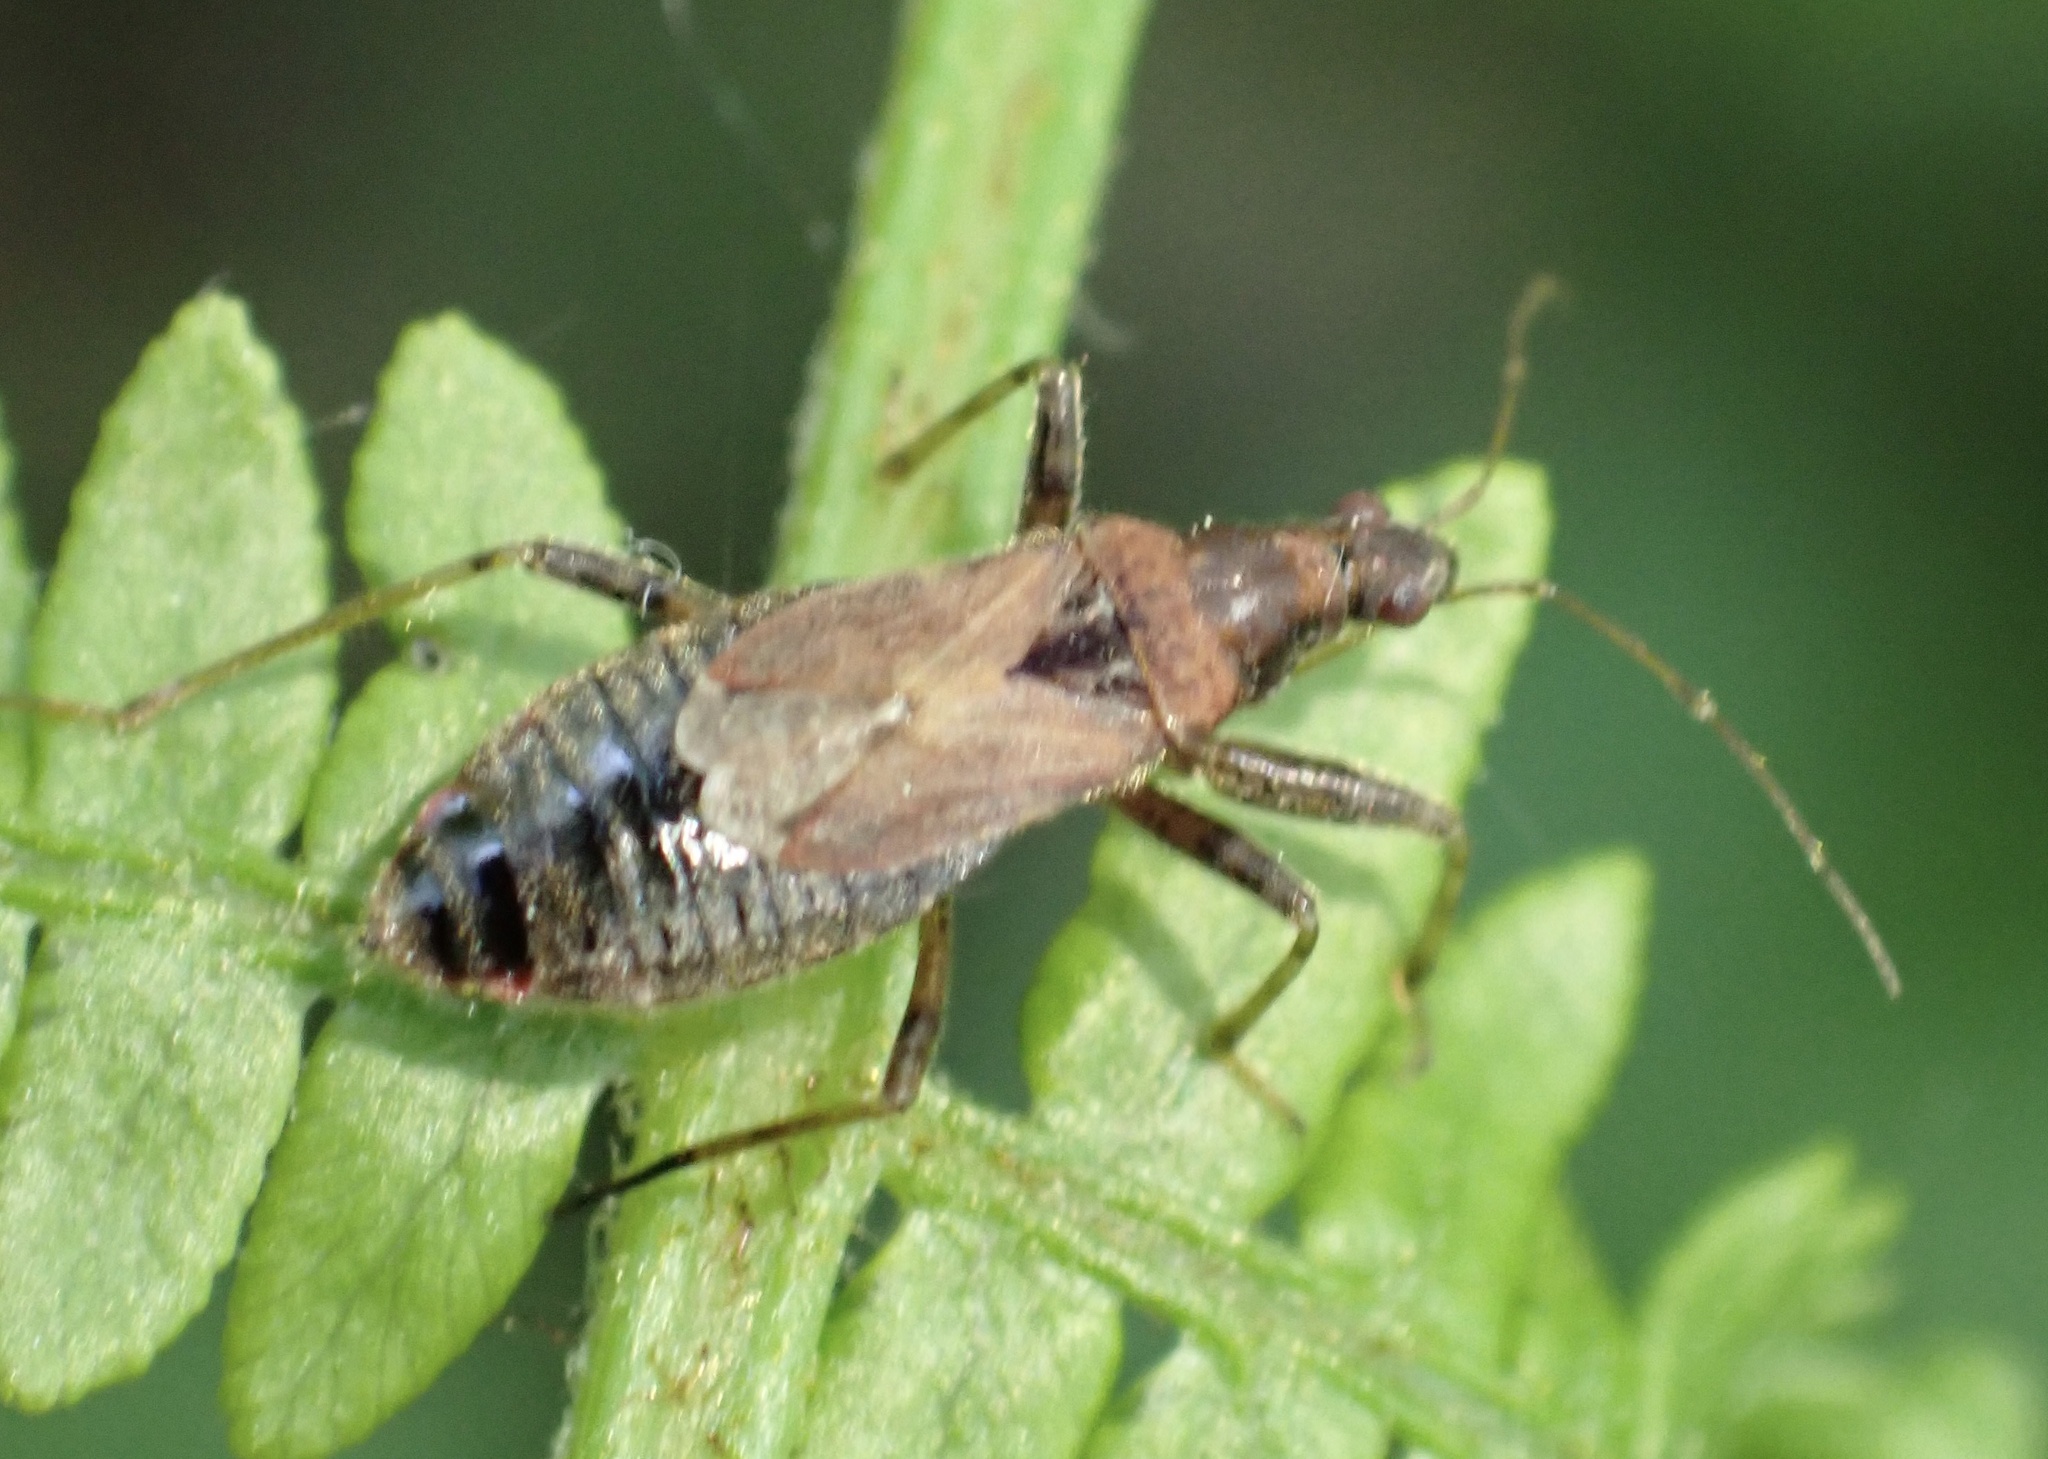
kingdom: Animalia
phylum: Arthropoda
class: Insecta
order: Hemiptera
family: Nabidae
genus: Himacerus
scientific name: Himacerus mirmicoides
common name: Ant damsel bug
